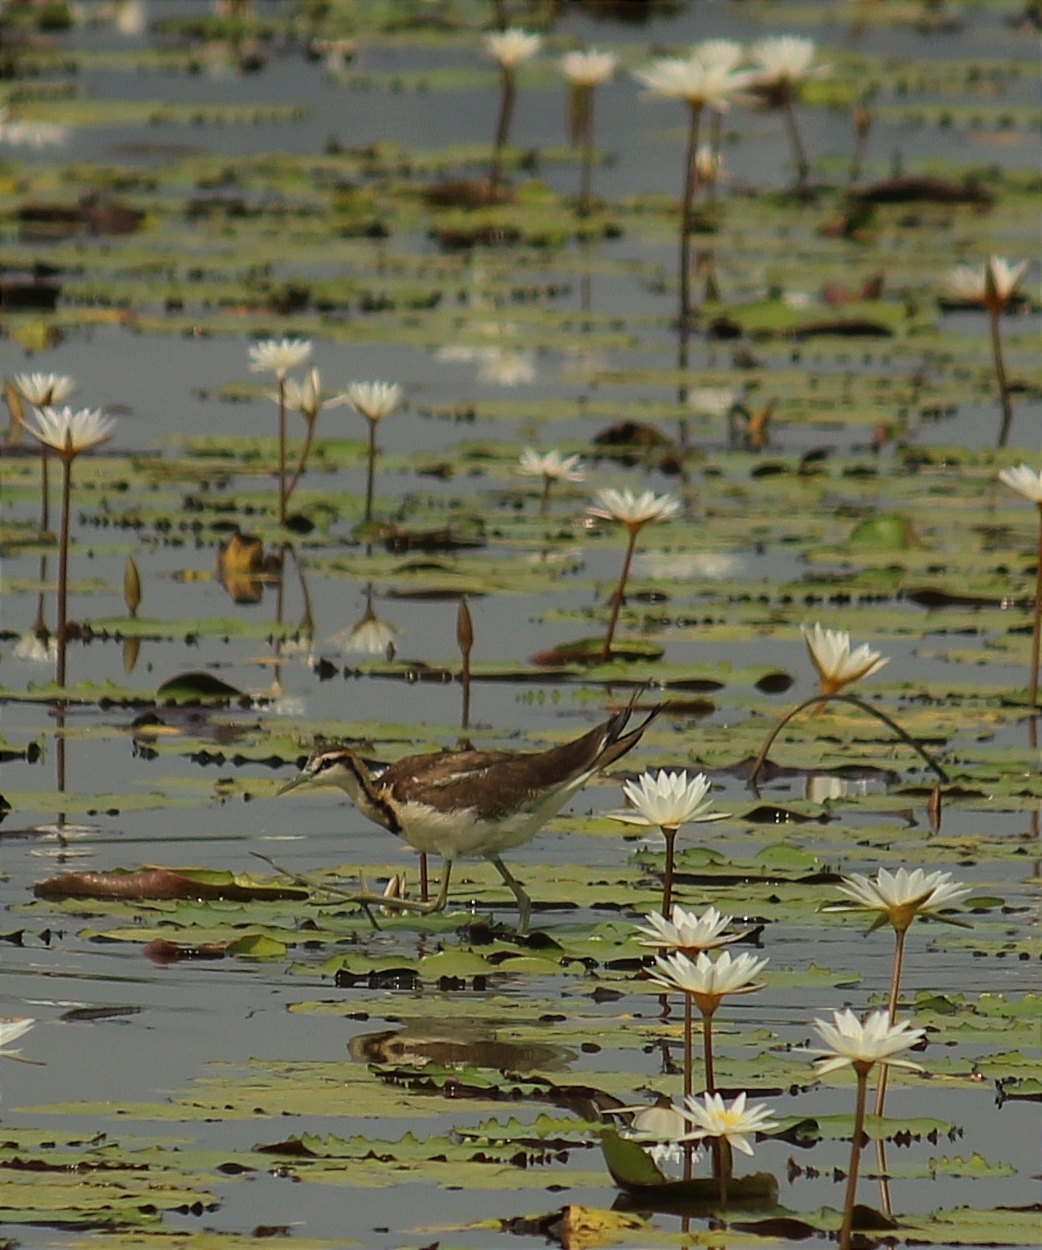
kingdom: Animalia
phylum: Chordata
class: Aves
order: Charadriiformes
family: Jacanidae
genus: Hydrophasianus
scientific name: Hydrophasianus chirurgus
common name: Pheasant-tailed jacana
